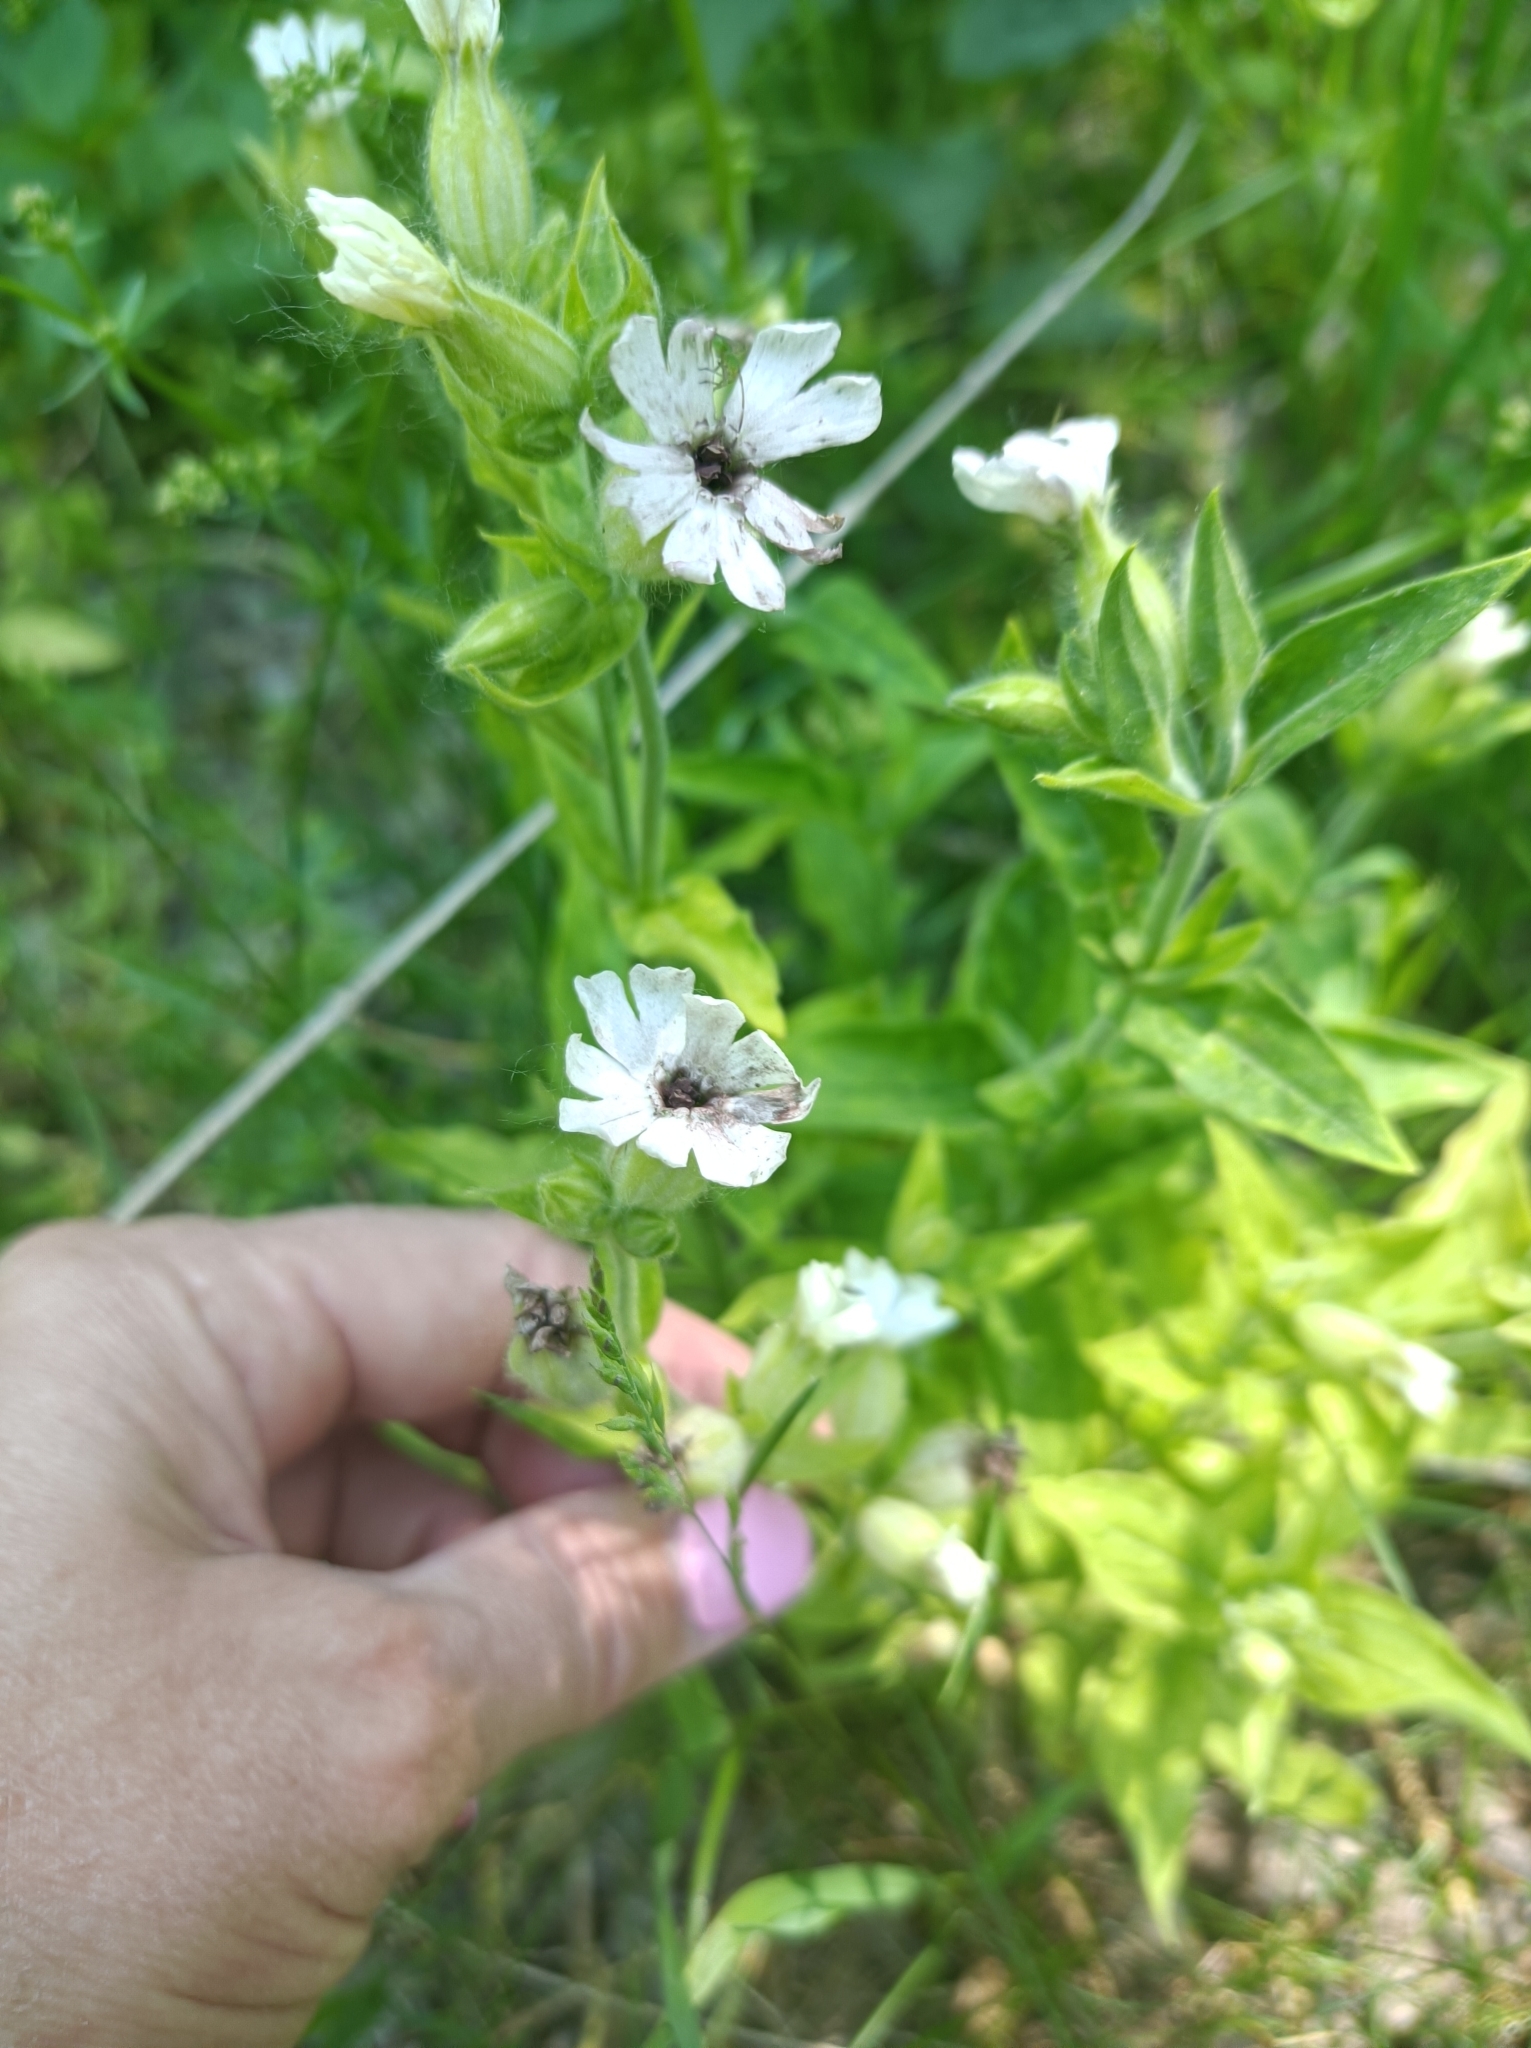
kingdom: Plantae
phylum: Tracheophyta
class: Magnoliopsida
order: Caryophyllales
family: Caryophyllaceae
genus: Silene
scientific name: Silene latifolia
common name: White campion
